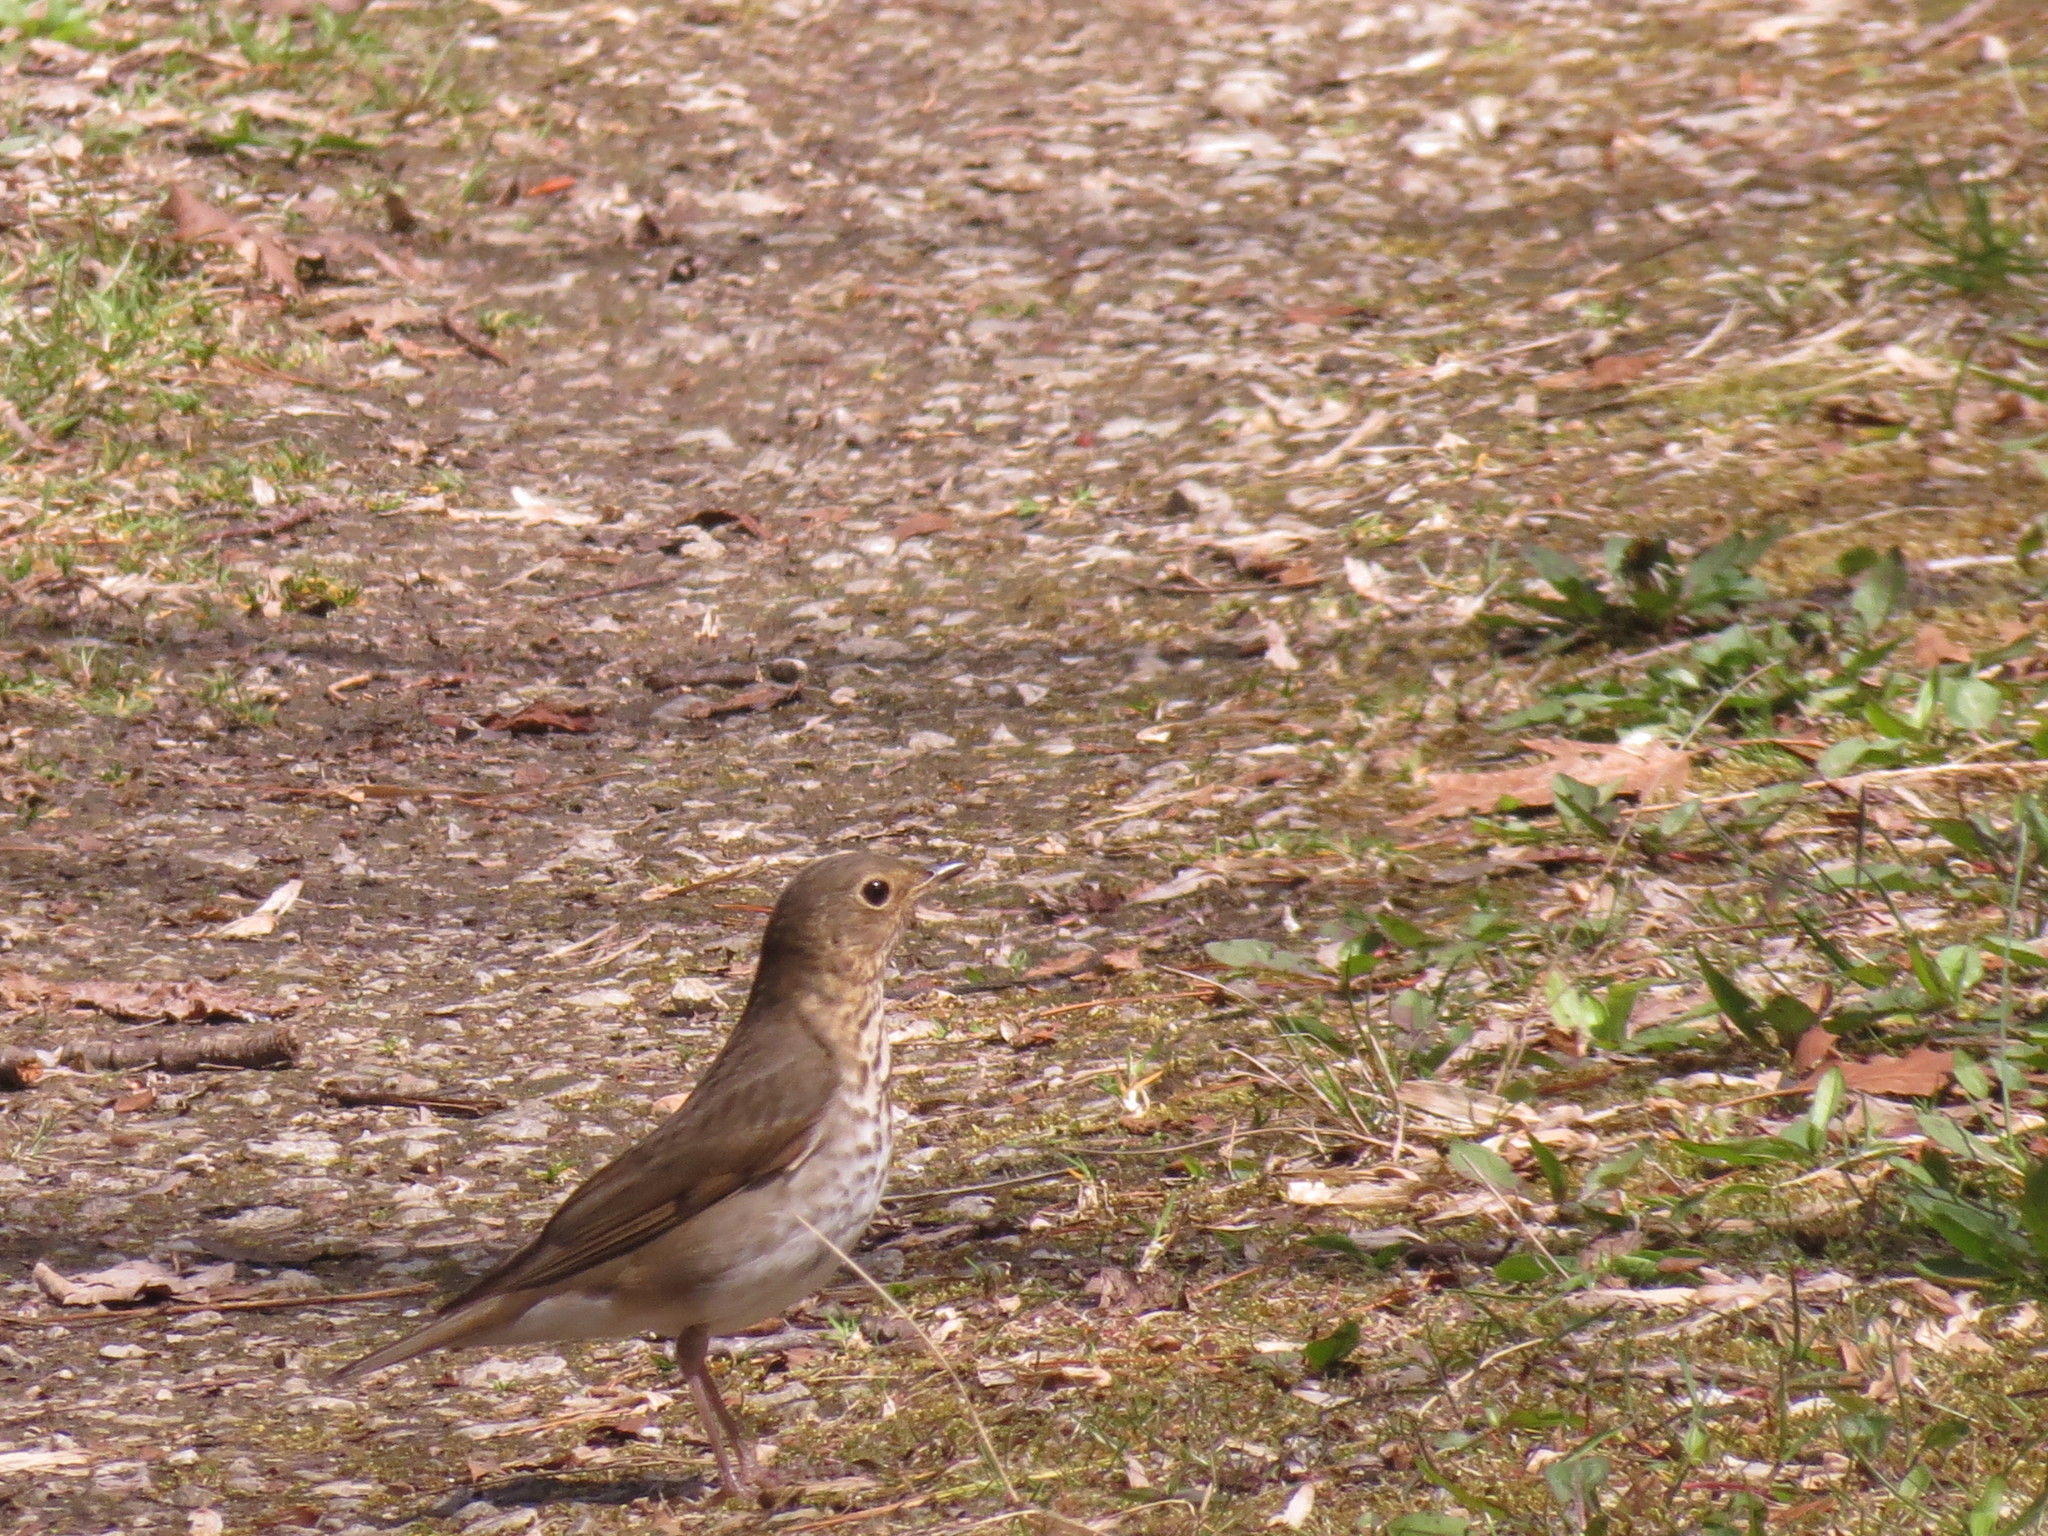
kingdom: Animalia
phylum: Chordata
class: Aves
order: Passeriformes
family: Turdidae
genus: Catharus
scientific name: Catharus ustulatus
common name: Swainson's thrush
